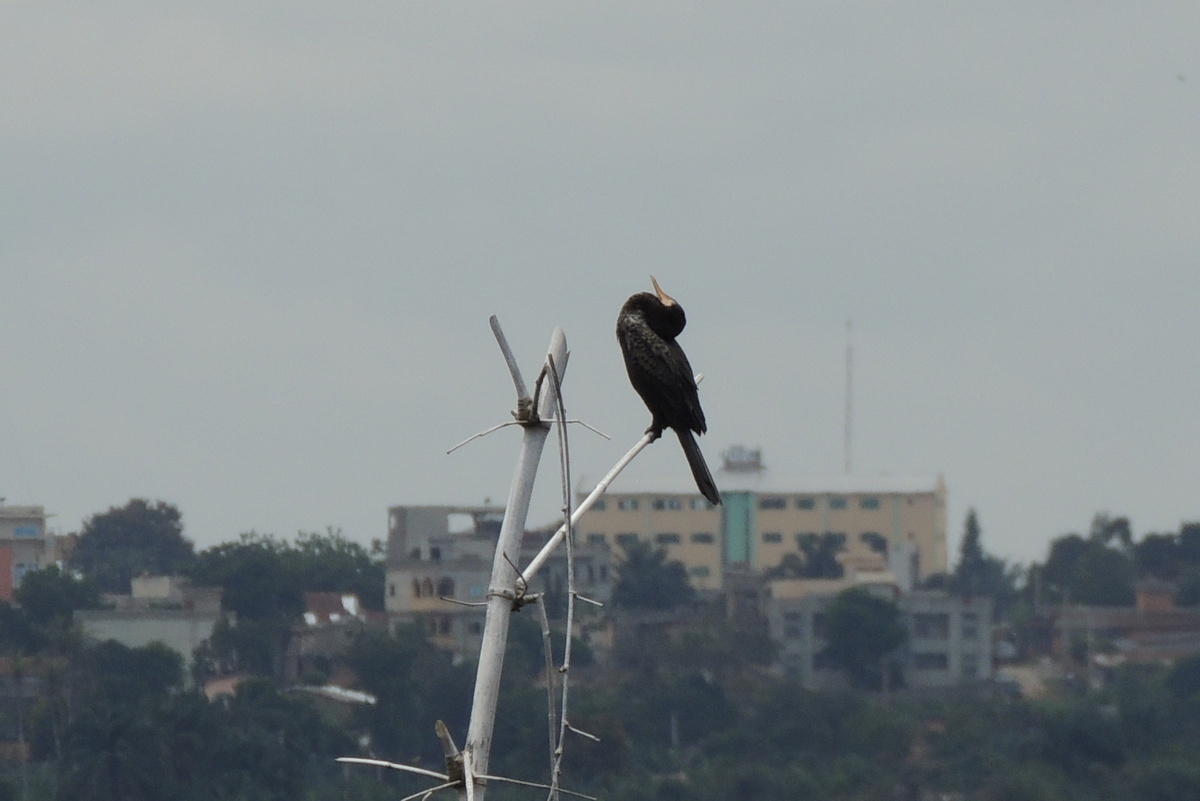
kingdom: Animalia
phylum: Chordata
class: Aves
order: Suliformes
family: Phalacrocoracidae
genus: Microcarbo
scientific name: Microcarbo africanus
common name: Long-tailed cormorant
